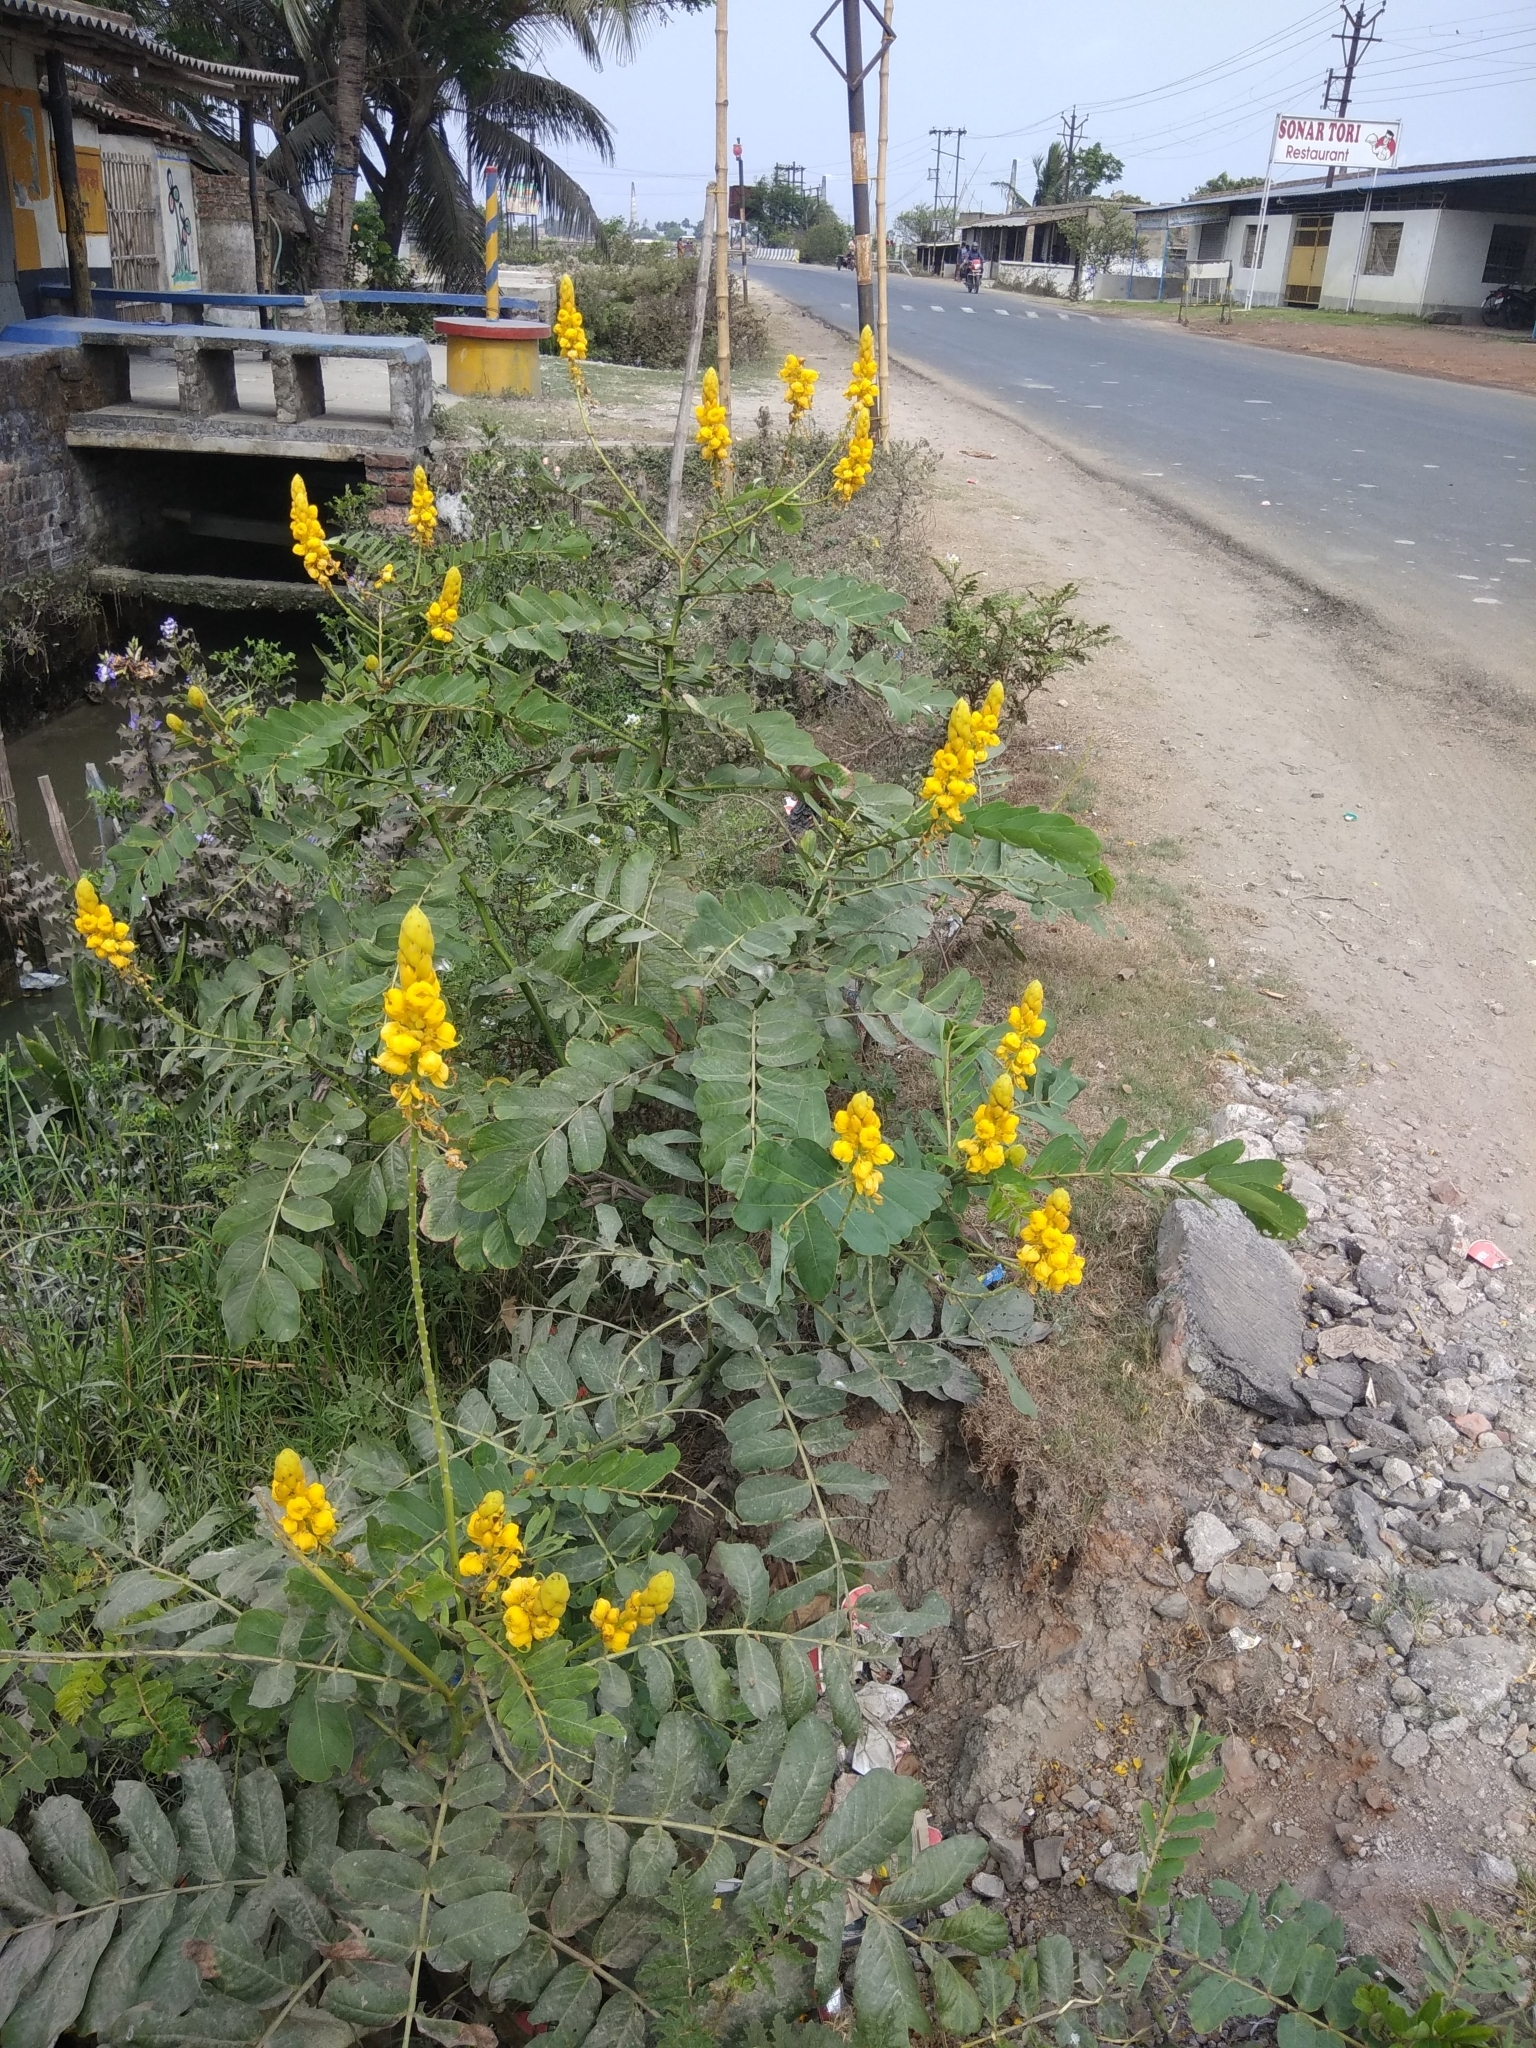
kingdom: Plantae
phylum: Tracheophyta
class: Magnoliopsida
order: Fabales
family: Fabaceae
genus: Senna
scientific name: Senna alata
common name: Emperor's candlesticks
